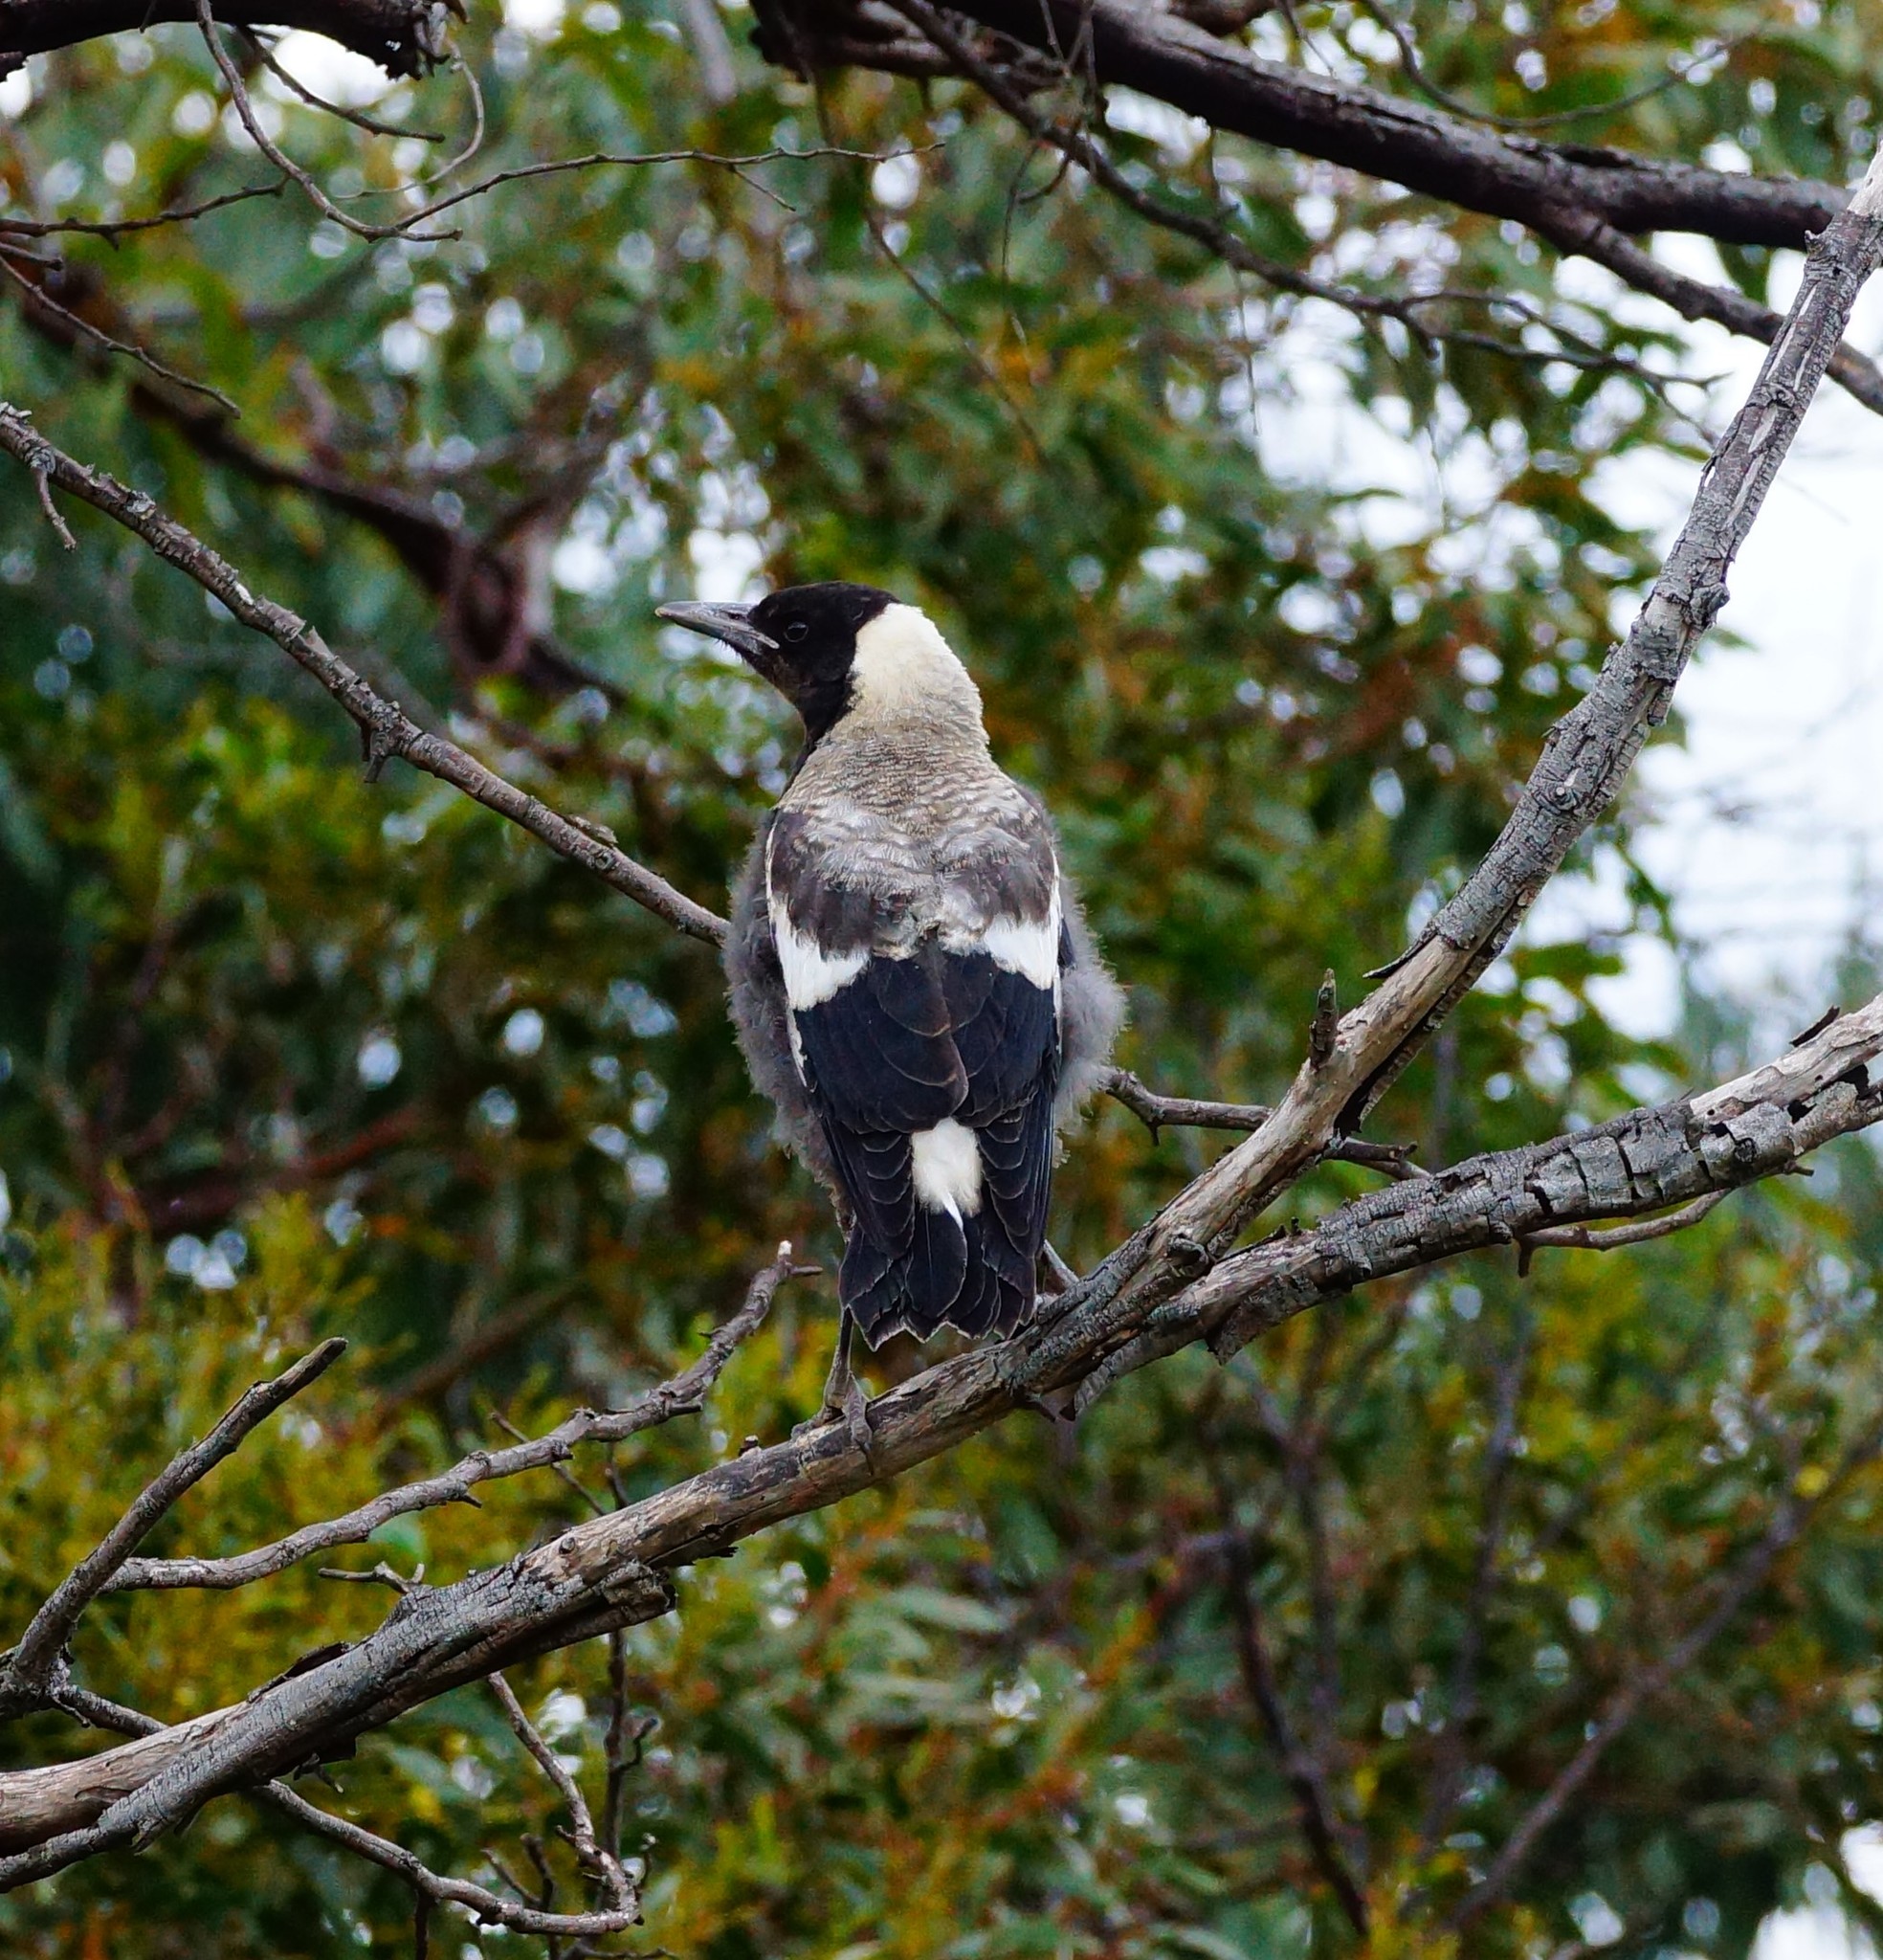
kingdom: Animalia
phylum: Chordata
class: Aves
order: Passeriformes
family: Cracticidae
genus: Gymnorhina
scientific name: Gymnorhina tibicen
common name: Australian magpie
